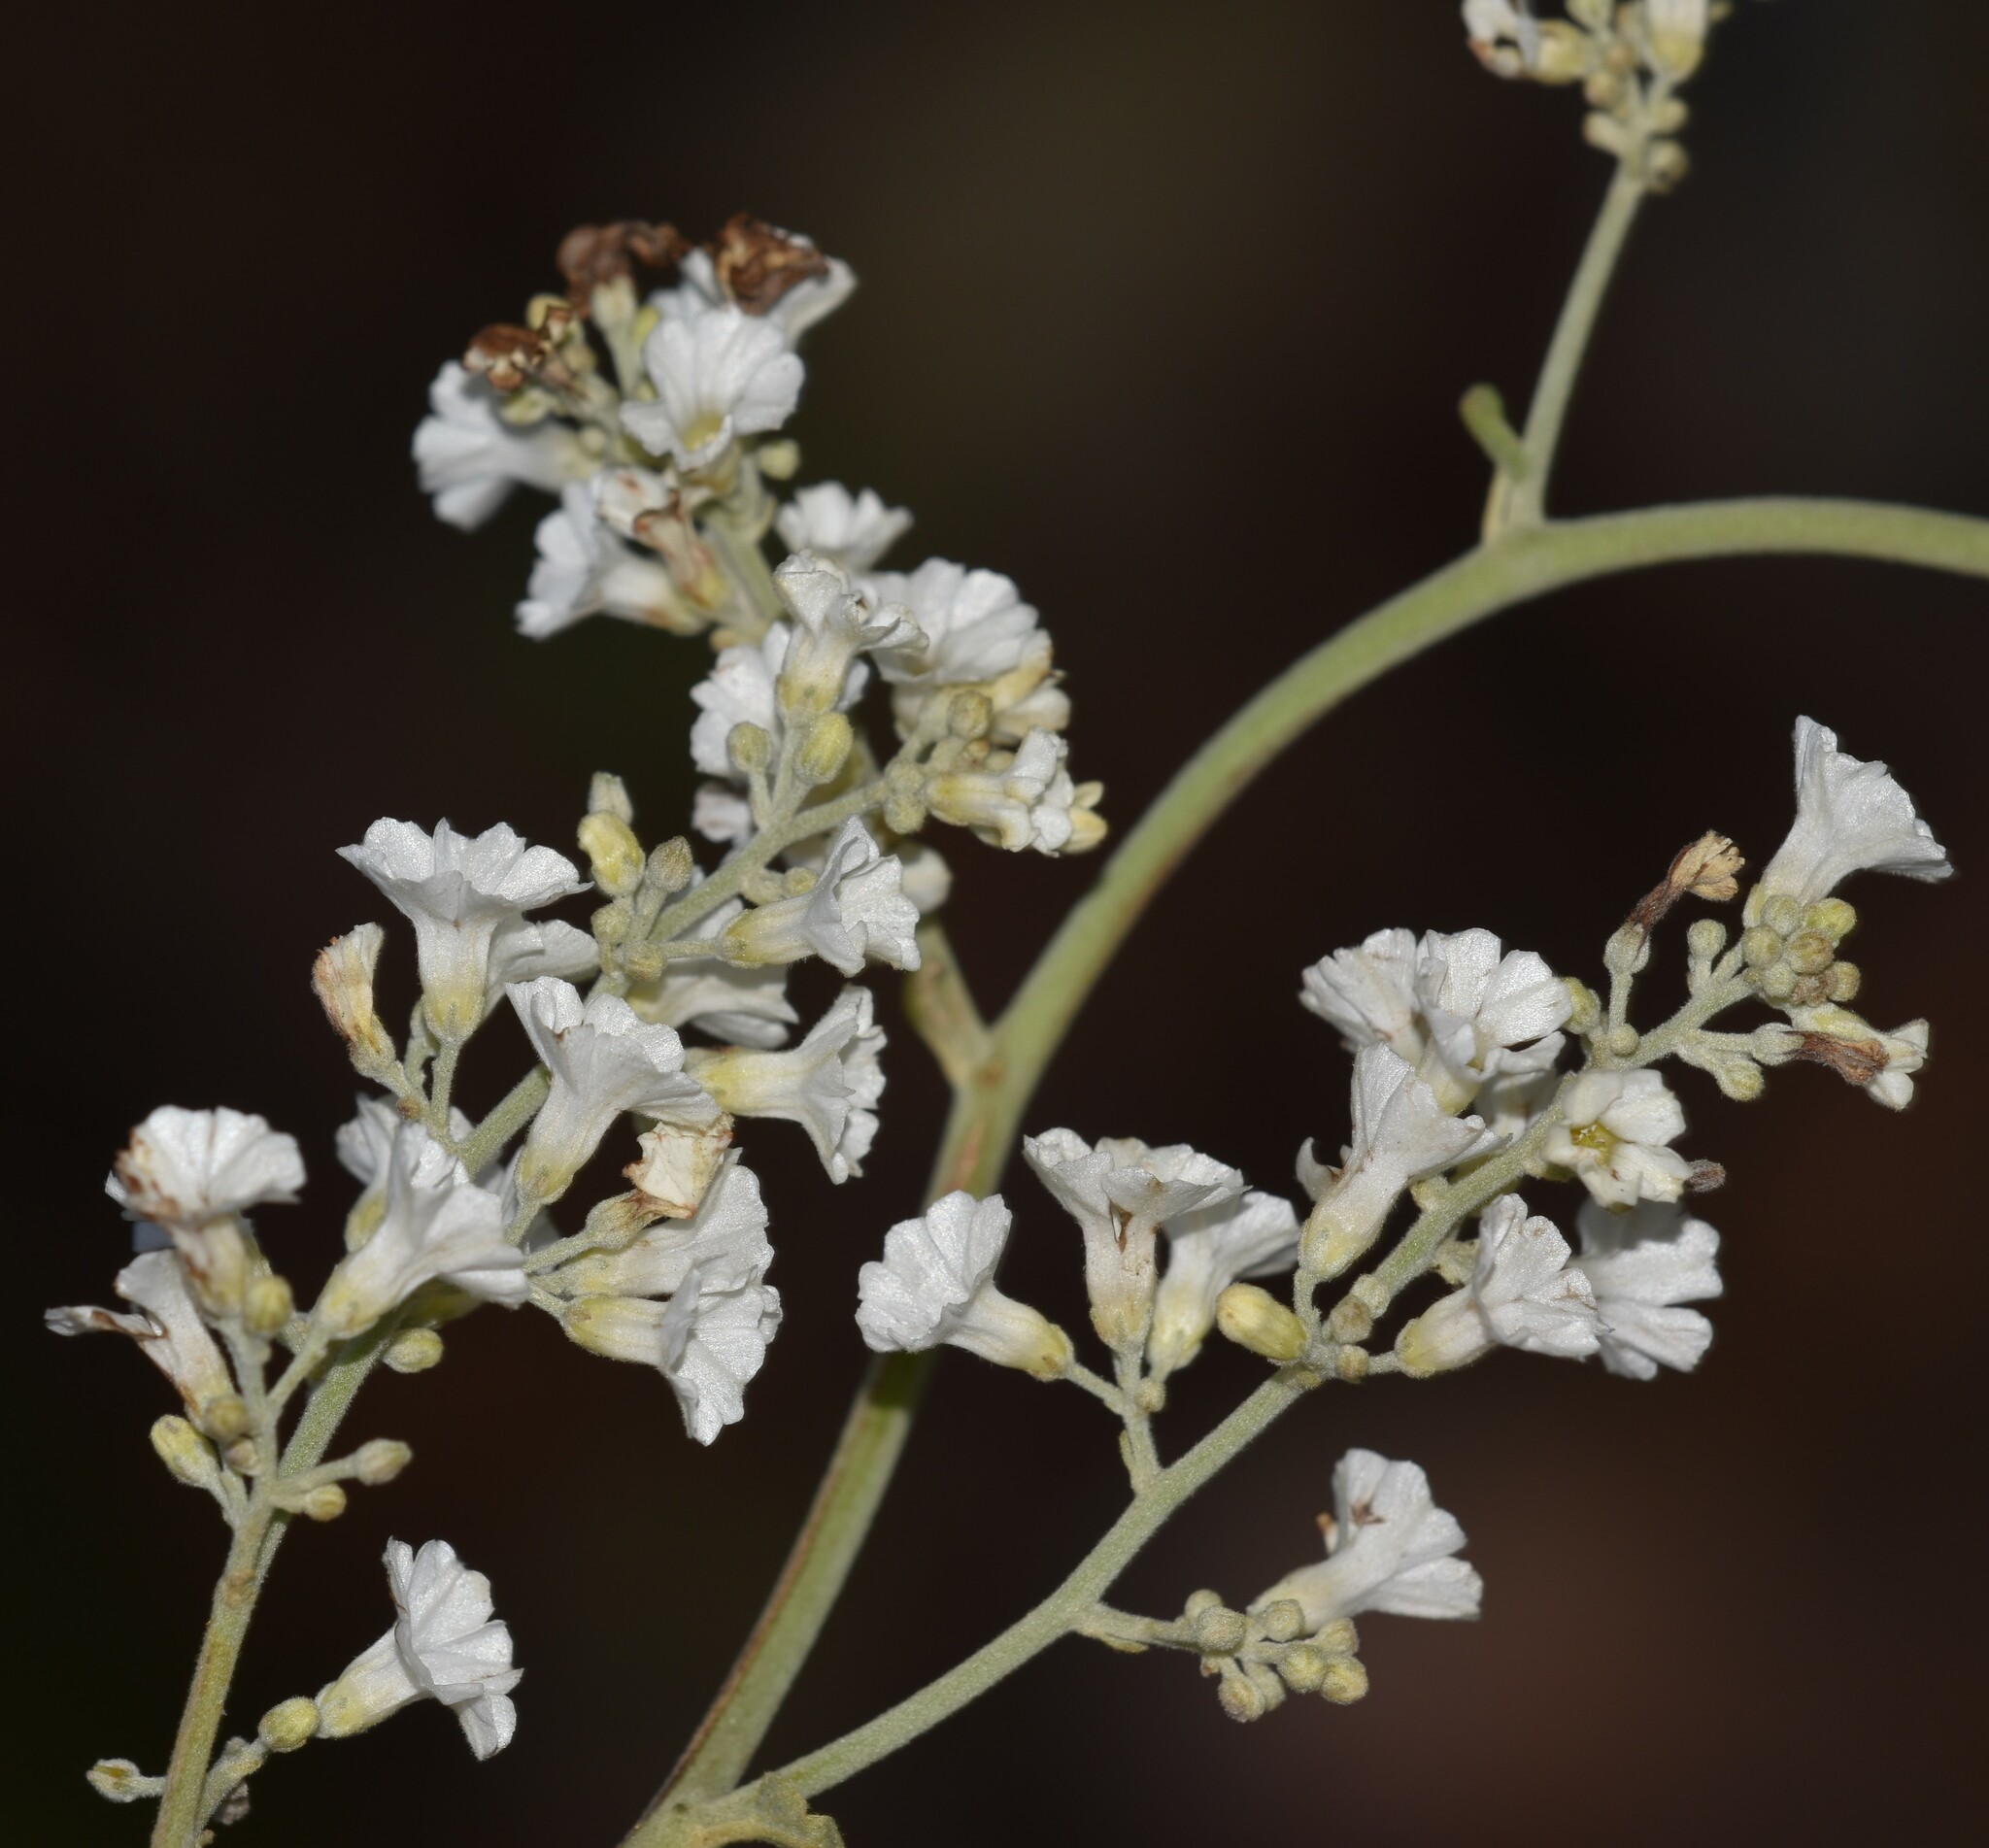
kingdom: Plantae
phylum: Tracheophyta
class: Magnoliopsida
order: Solanales
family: Convolvulaceae
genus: Poranopsis
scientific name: Poranopsis paniculata
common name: Bridal bouquet
